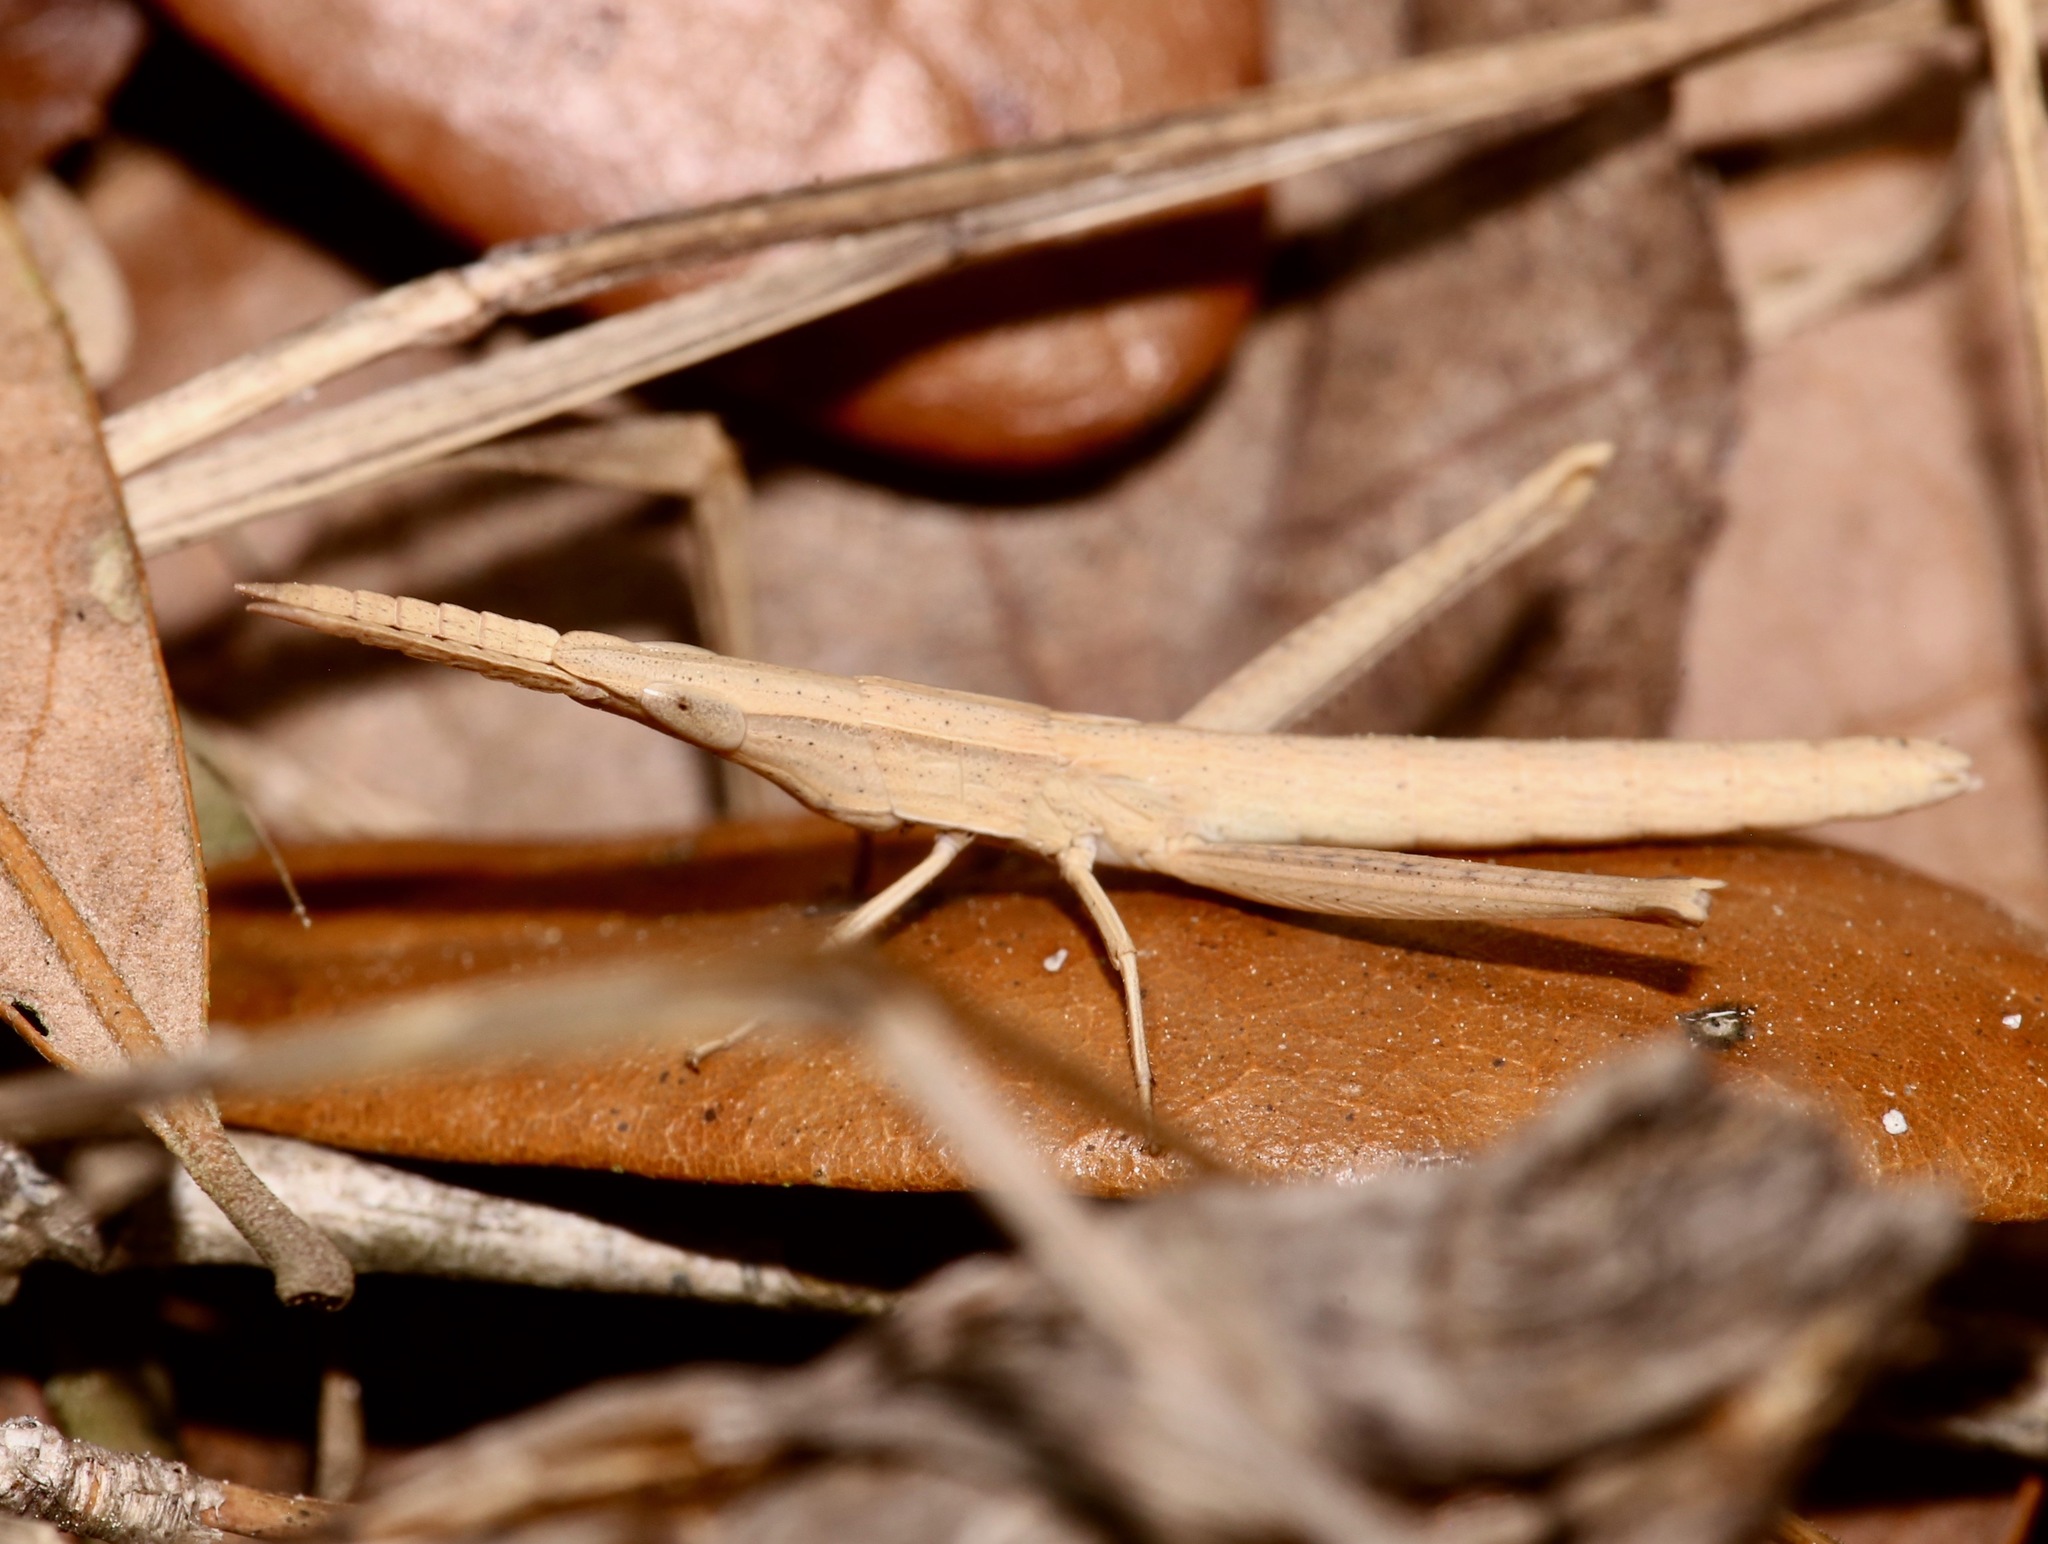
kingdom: Animalia
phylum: Arthropoda
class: Insecta
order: Orthoptera
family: Acrididae
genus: Achurum
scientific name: Achurum carinatum
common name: Long-headed toothpick grasshopper
